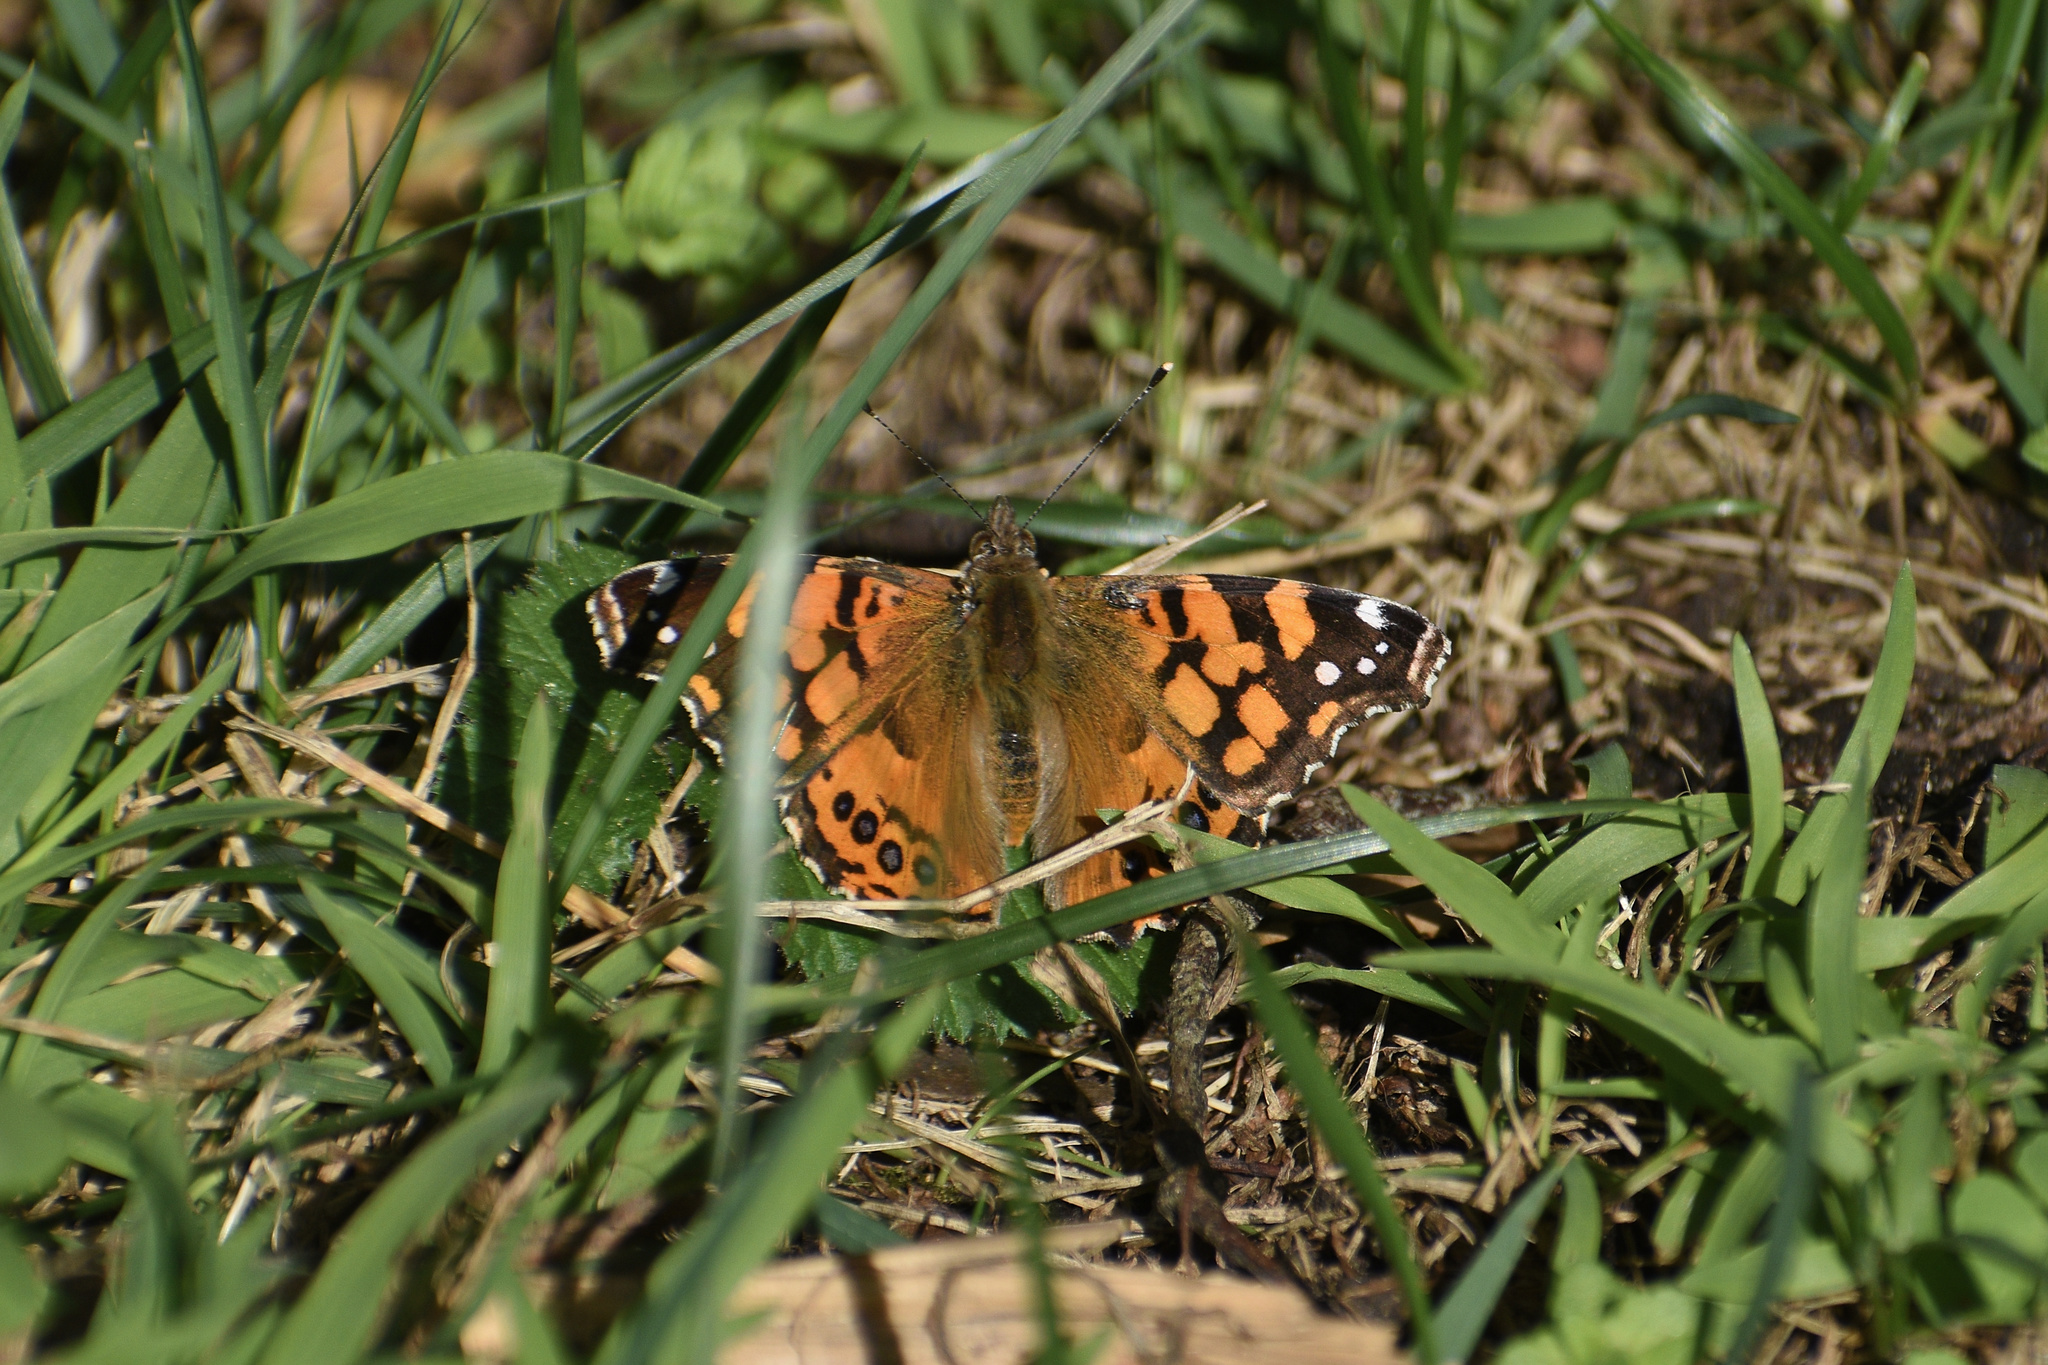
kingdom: Animalia
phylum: Arthropoda
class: Insecta
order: Lepidoptera
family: Nymphalidae
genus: Vanessa
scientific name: Vanessa annabella
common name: West coast lady
